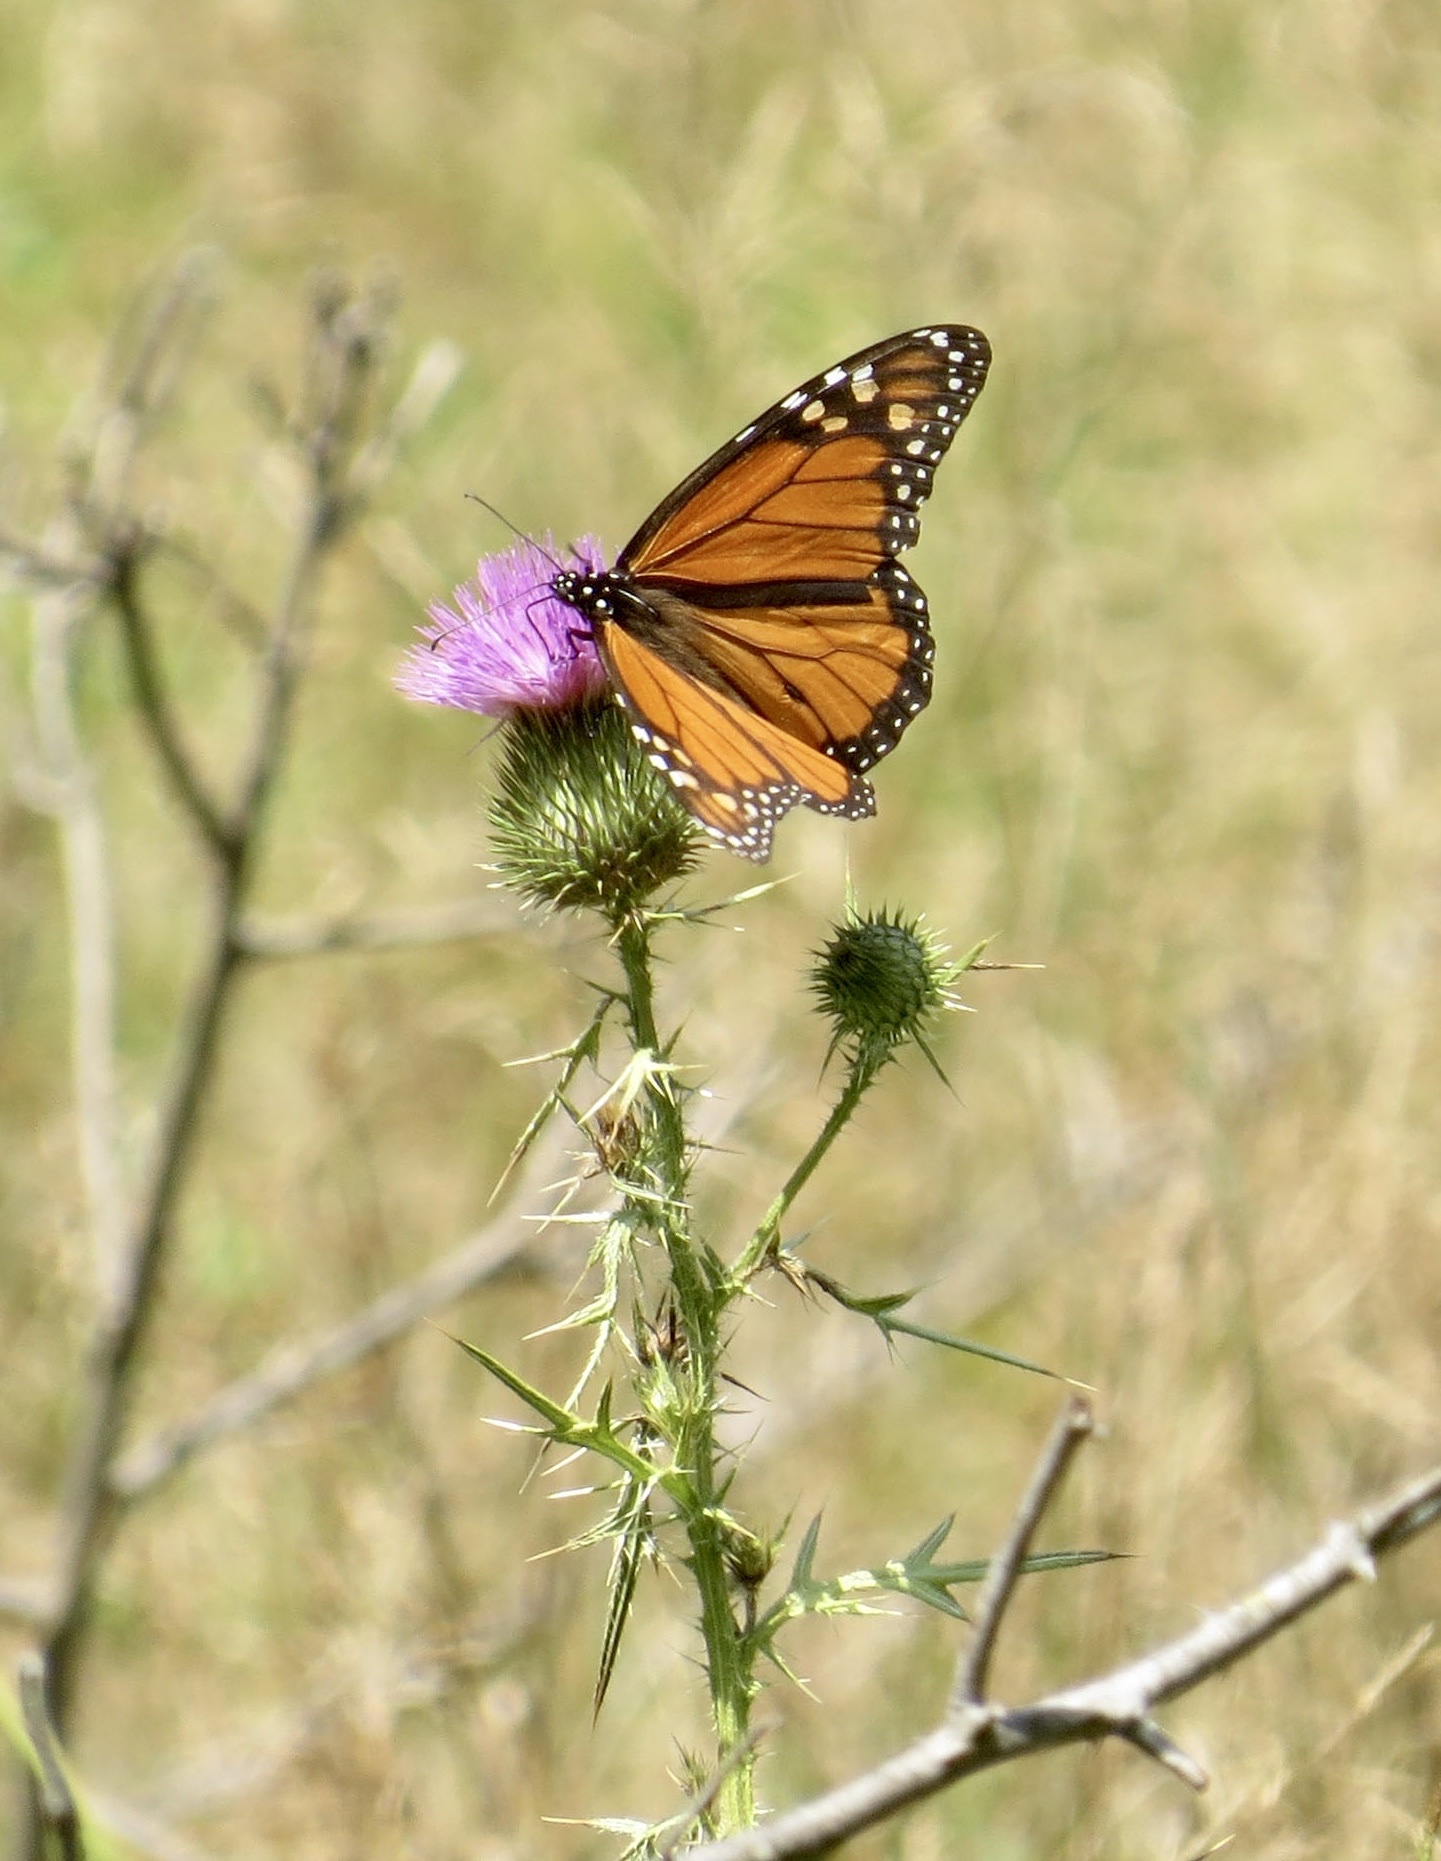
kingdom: Animalia
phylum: Arthropoda
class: Insecta
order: Lepidoptera
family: Nymphalidae
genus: Danaus
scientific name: Danaus plexippus
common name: Monarch
